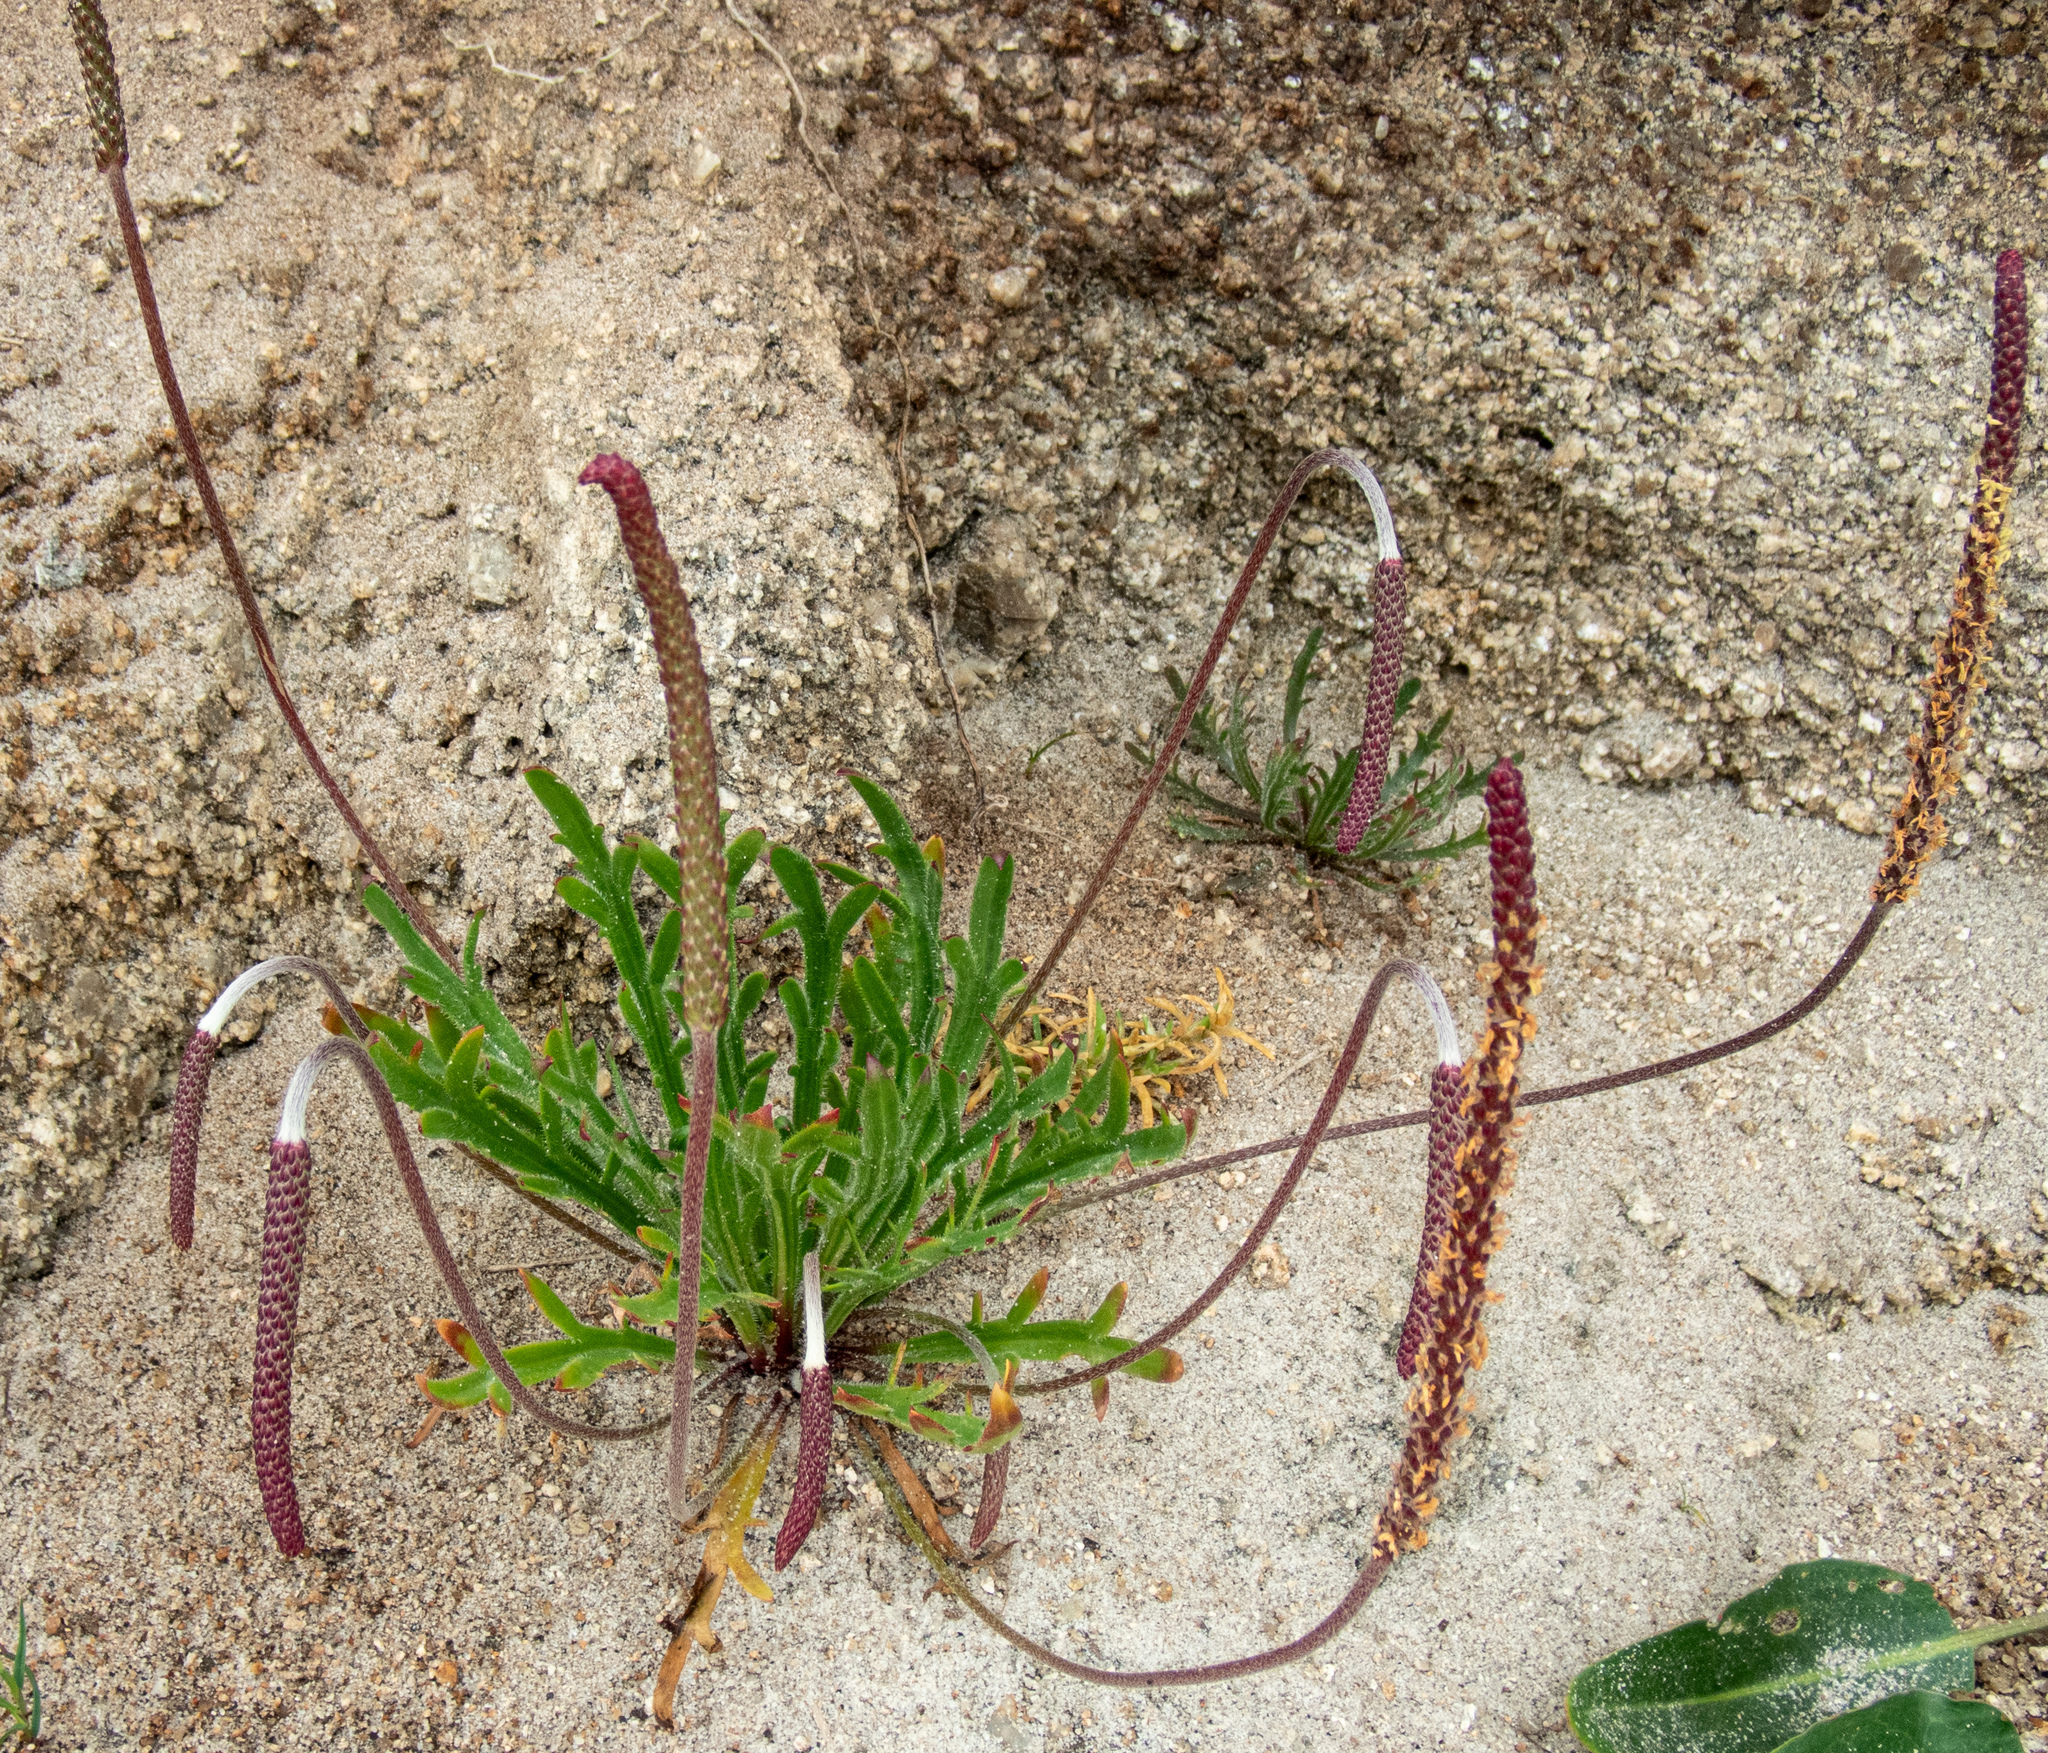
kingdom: Plantae
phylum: Tracheophyta
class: Magnoliopsida
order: Lamiales
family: Plantaginaceae
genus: Plantago
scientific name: Plantago coronopus
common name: Buck's-horn plantain
